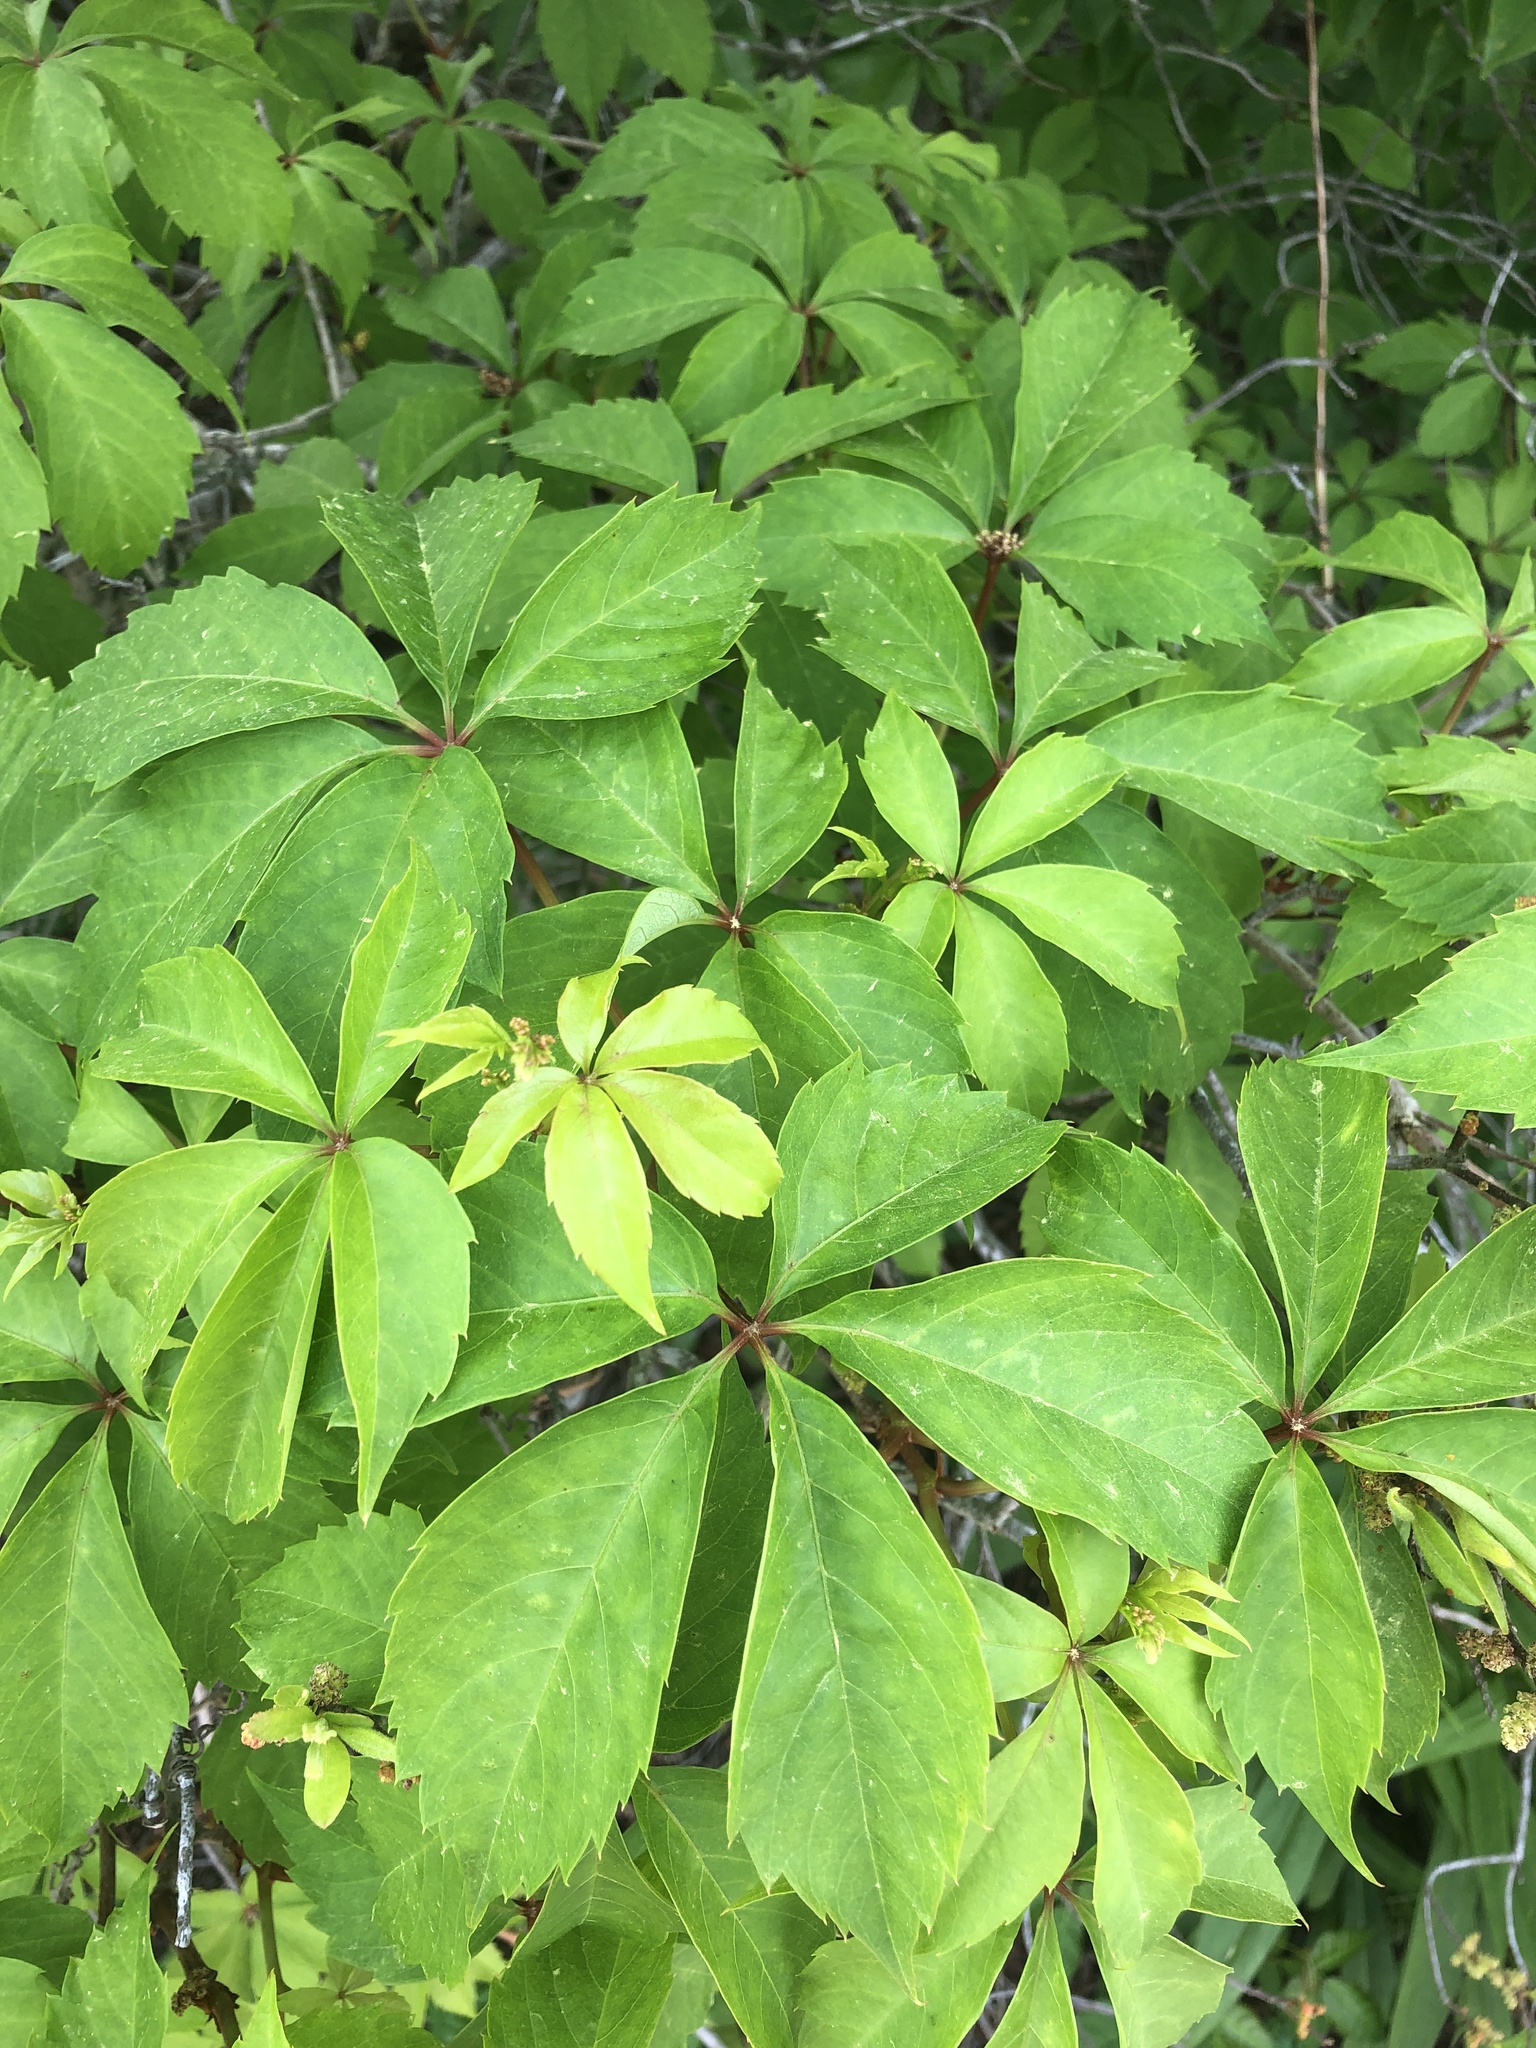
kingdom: Plantae
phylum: Tracheophyta
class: Magnoliopsida
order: Vitales
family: Vitaceae
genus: Parthenocissus
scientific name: Parthenocissus quinquefolia
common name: Virginia-creeper
